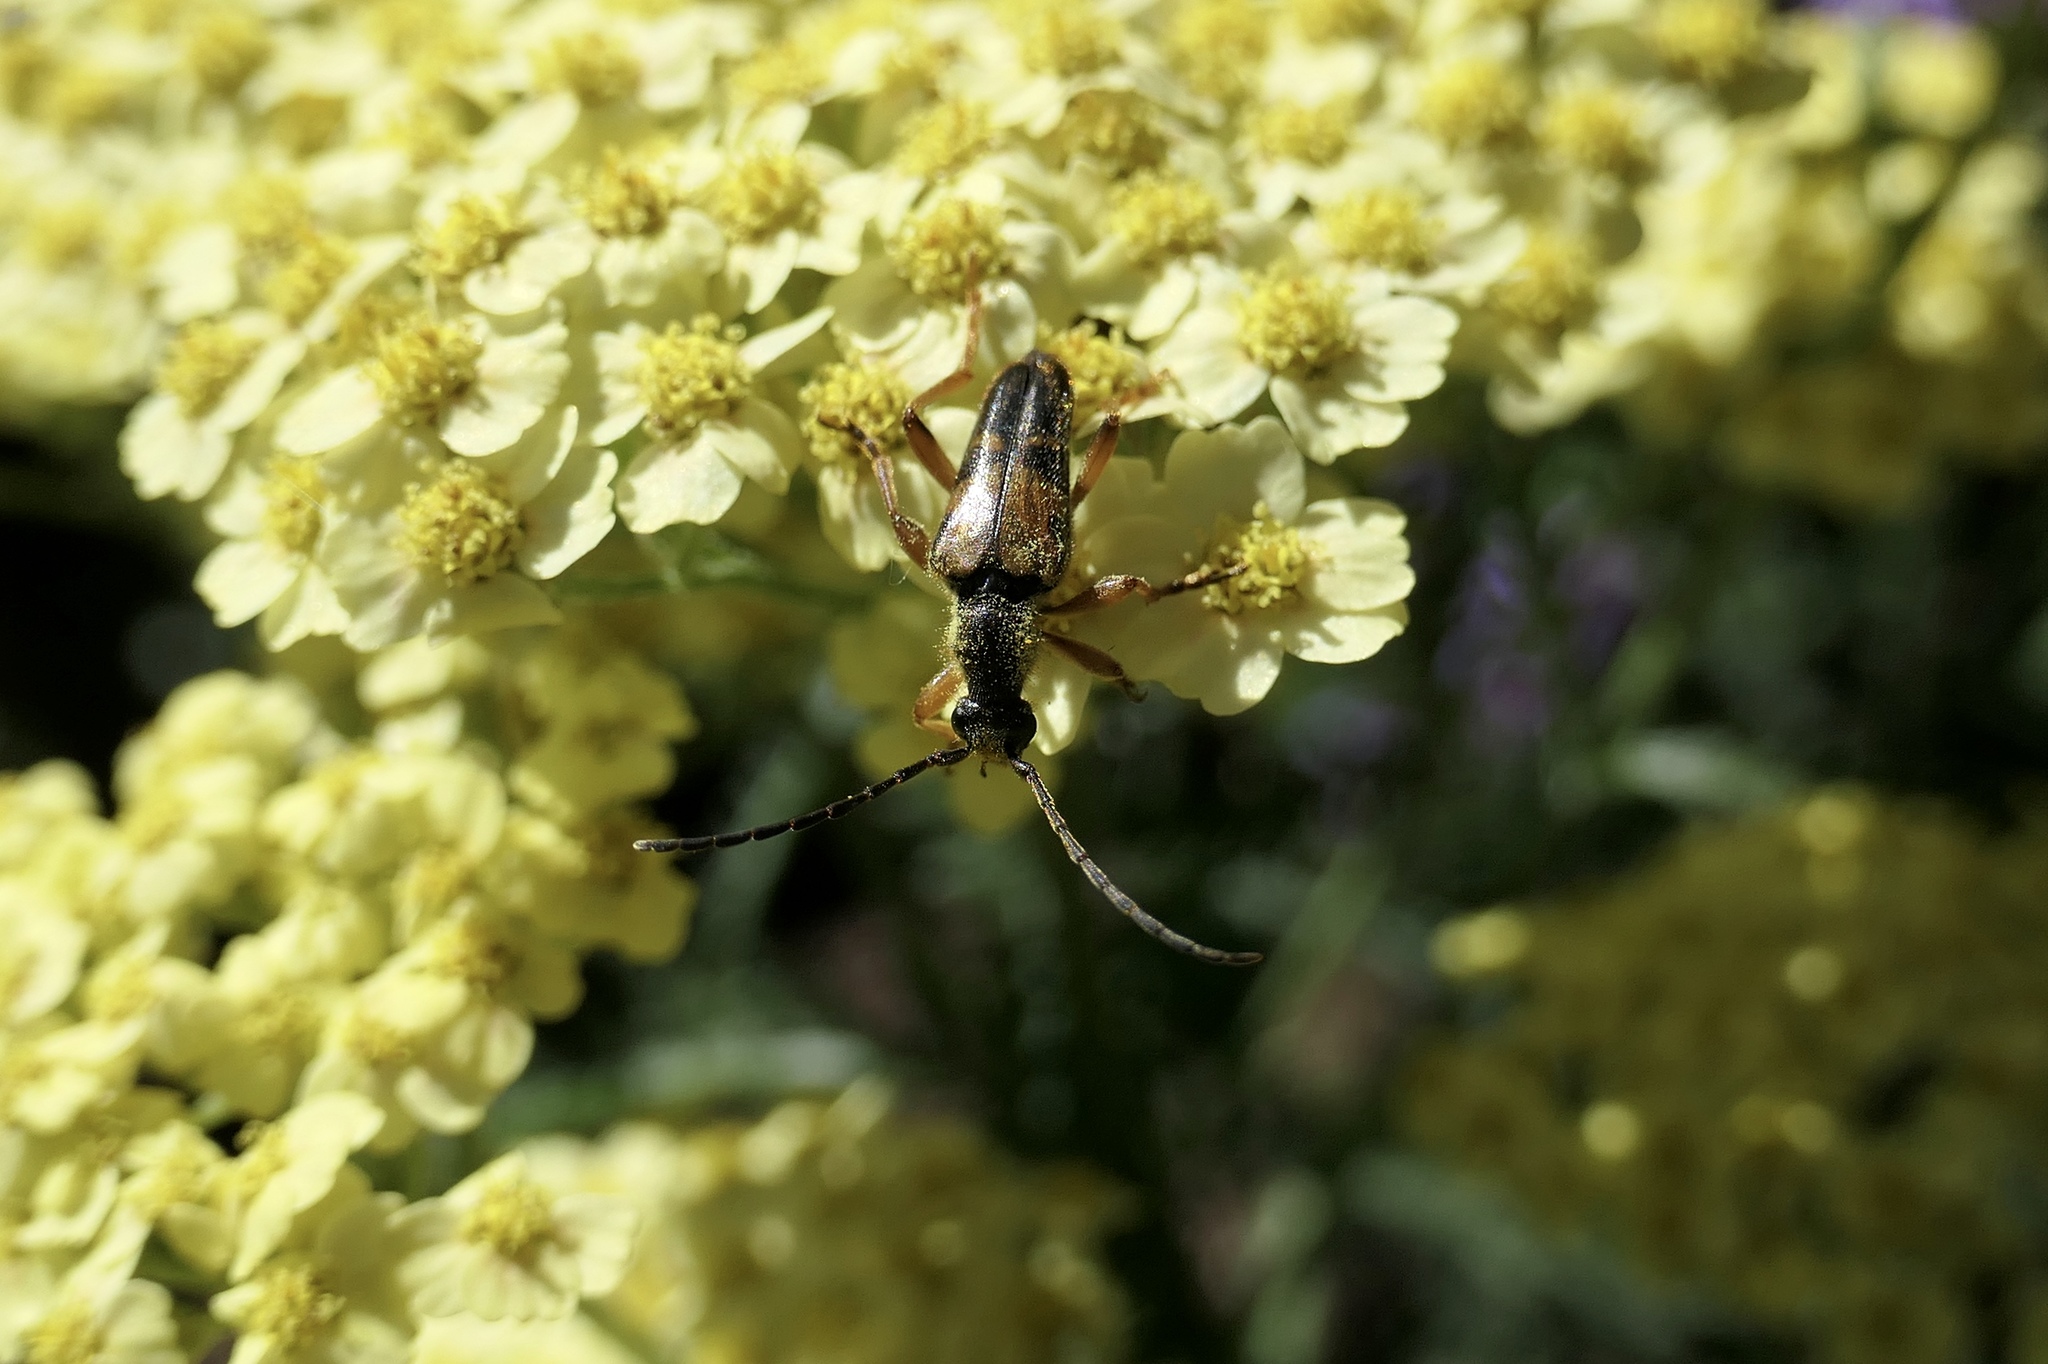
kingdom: Animalia
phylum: Arthropoda
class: Insecta
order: Coleoptera
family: Cerambycidae
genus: Xestoleptura
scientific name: Xestoleptura crassipes
